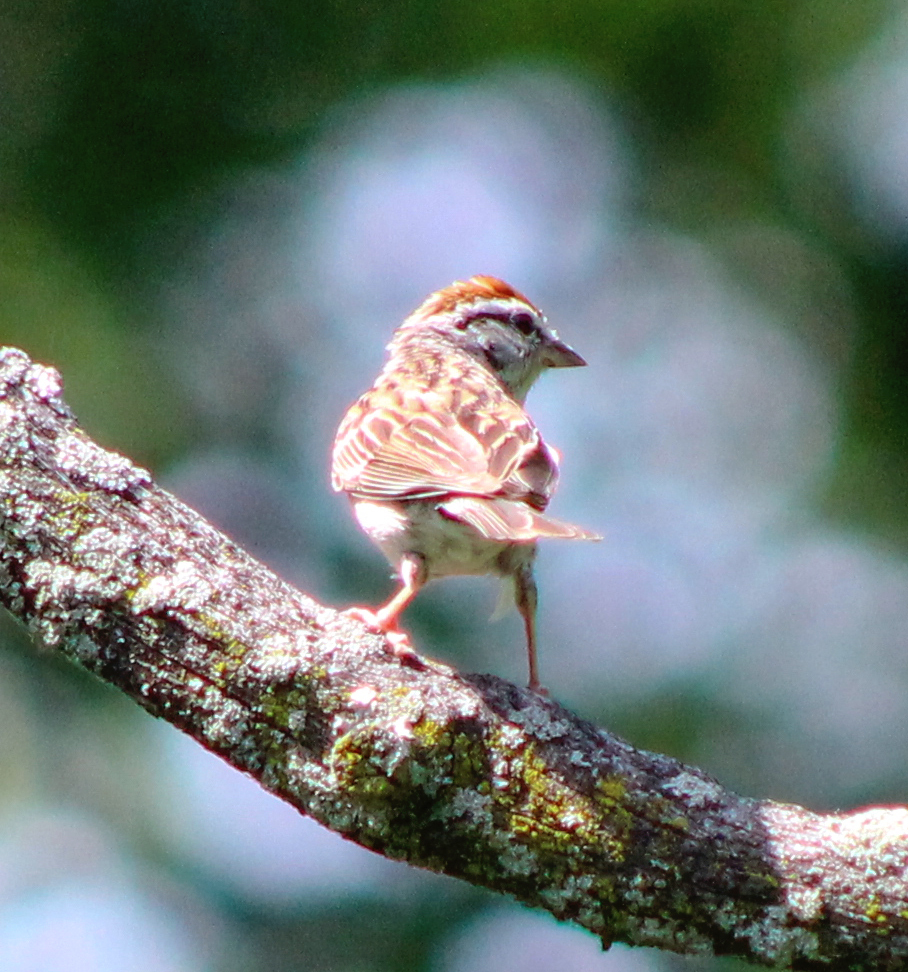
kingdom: Animalia
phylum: Chordata
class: Aves
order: Passeriformes
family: Passerellidae
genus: Spizella
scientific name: Spizella passerina
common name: Chipping sparrow
